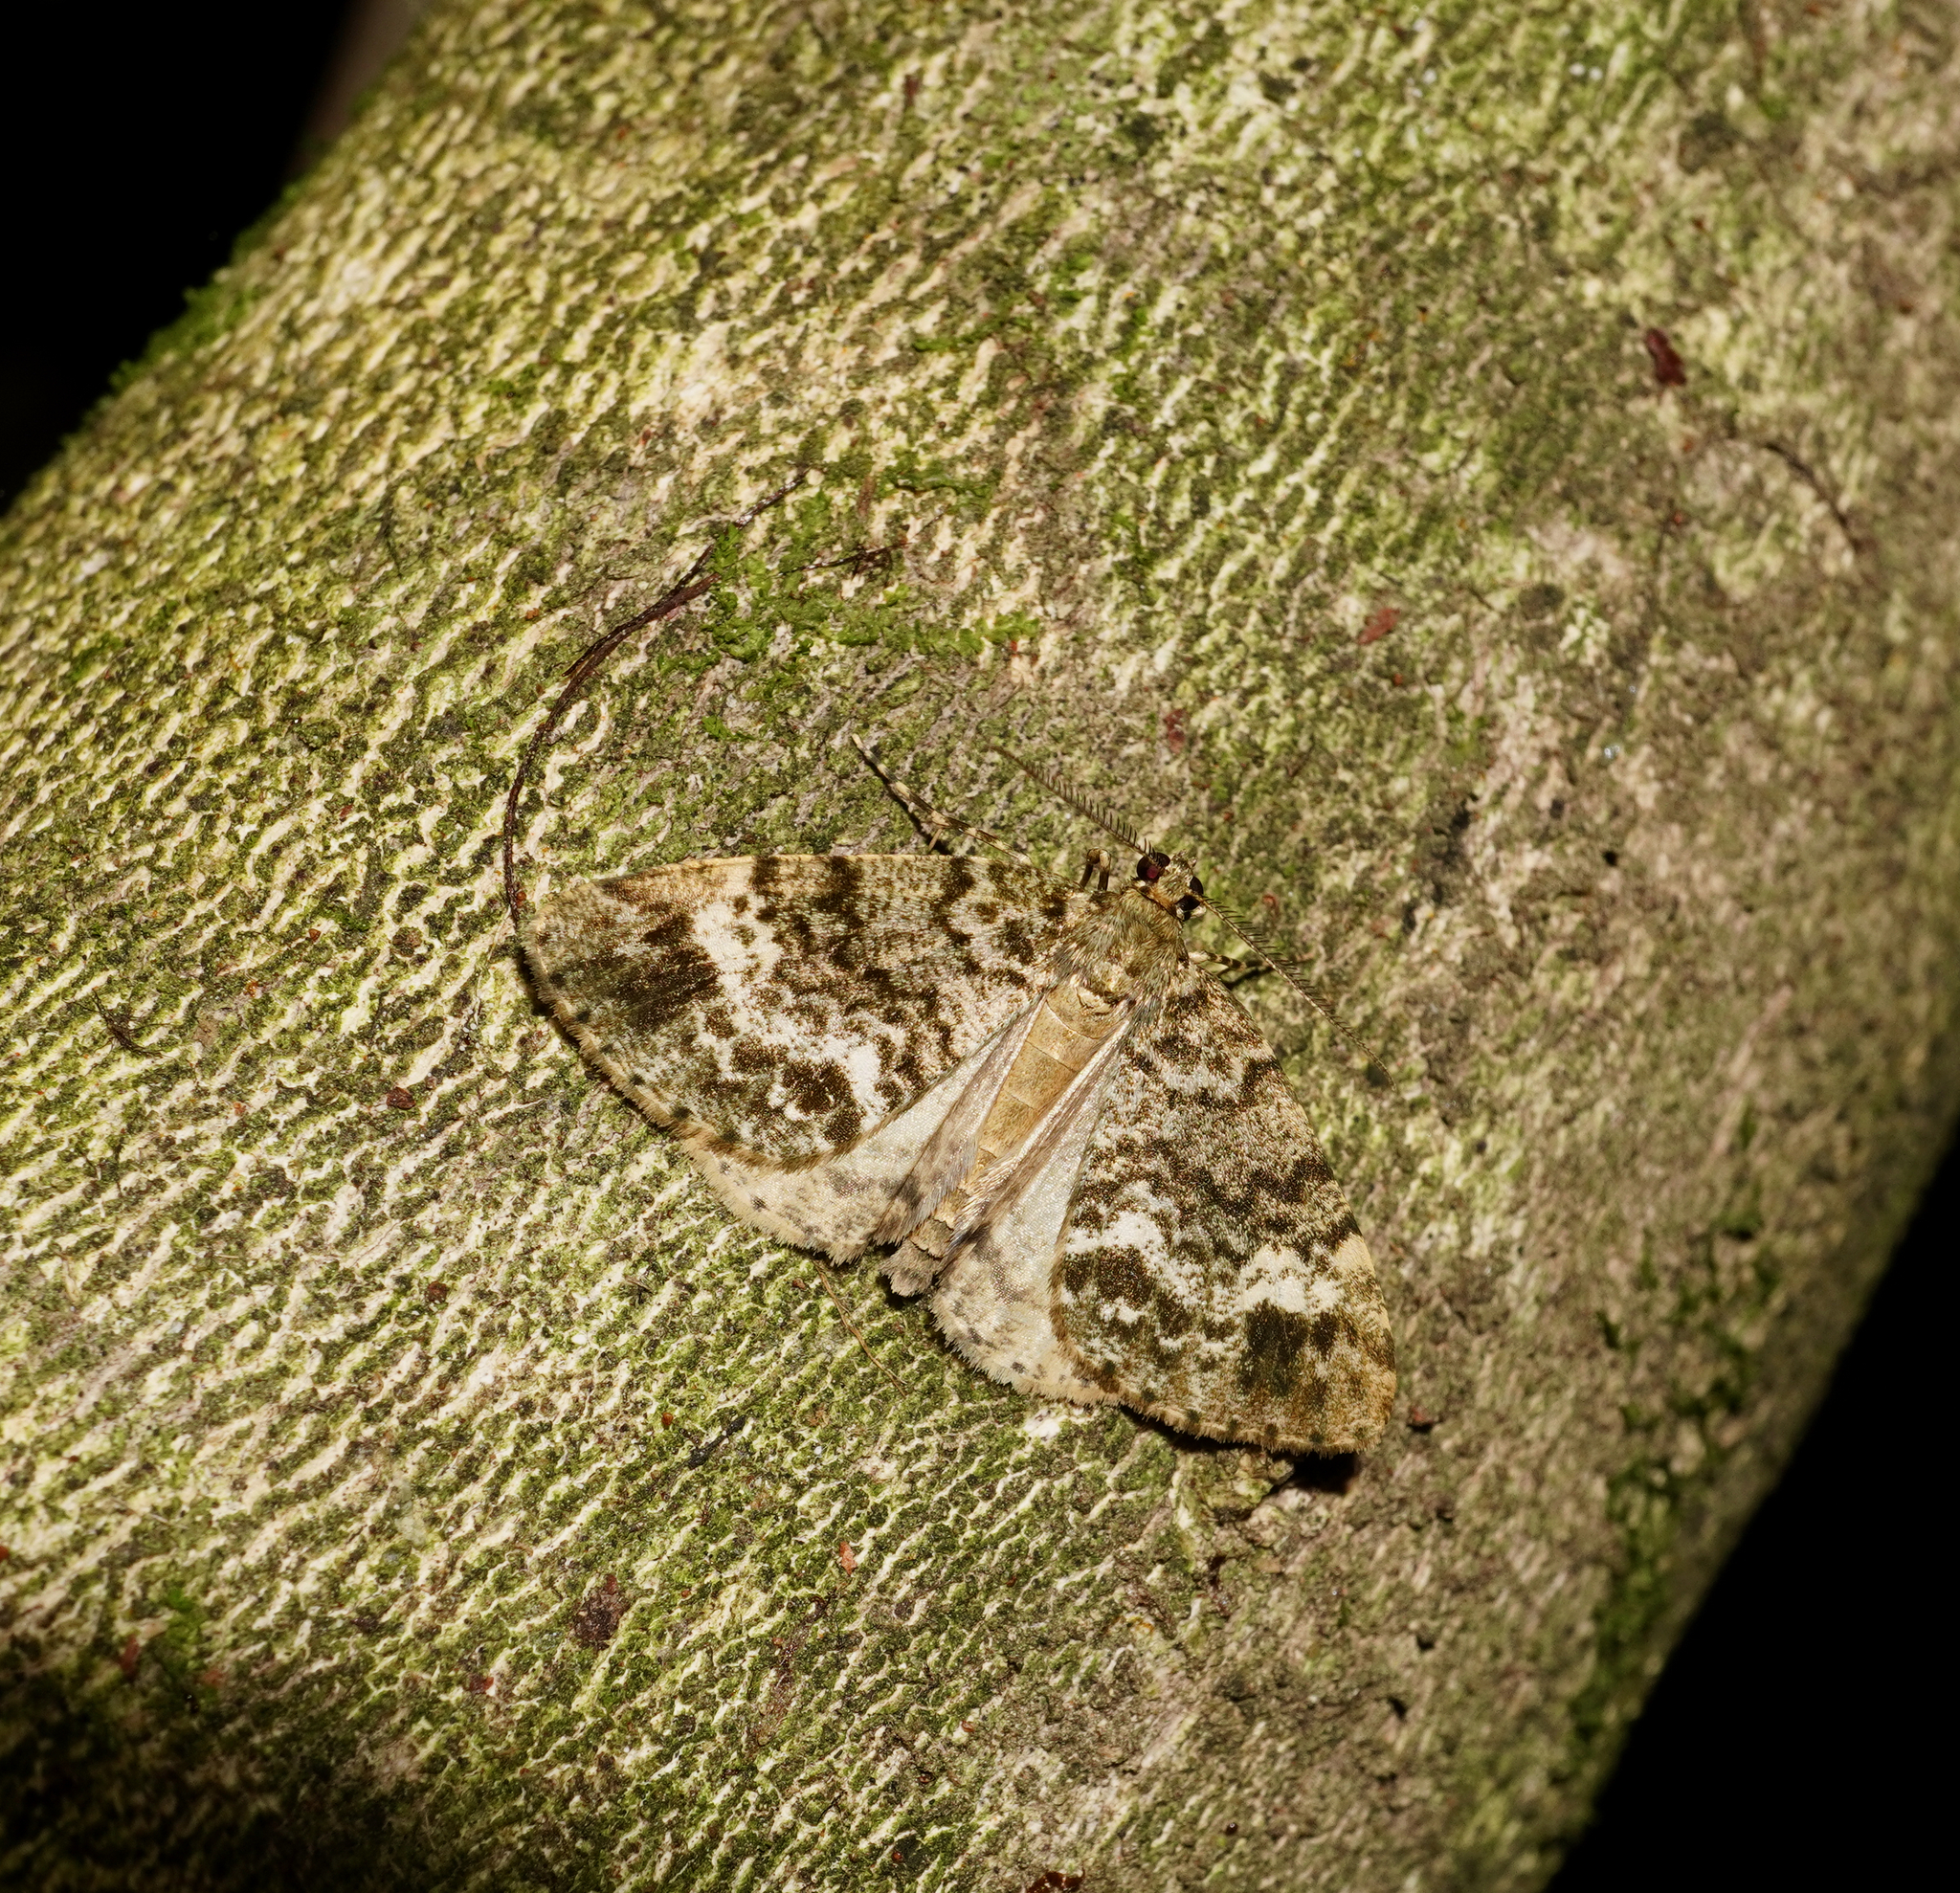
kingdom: Animalia
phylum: Arthropoda
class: Insecta
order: Lepidoptera
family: Geometridae
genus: Pseudocoremia
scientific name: Pseudocoremia indistincta
